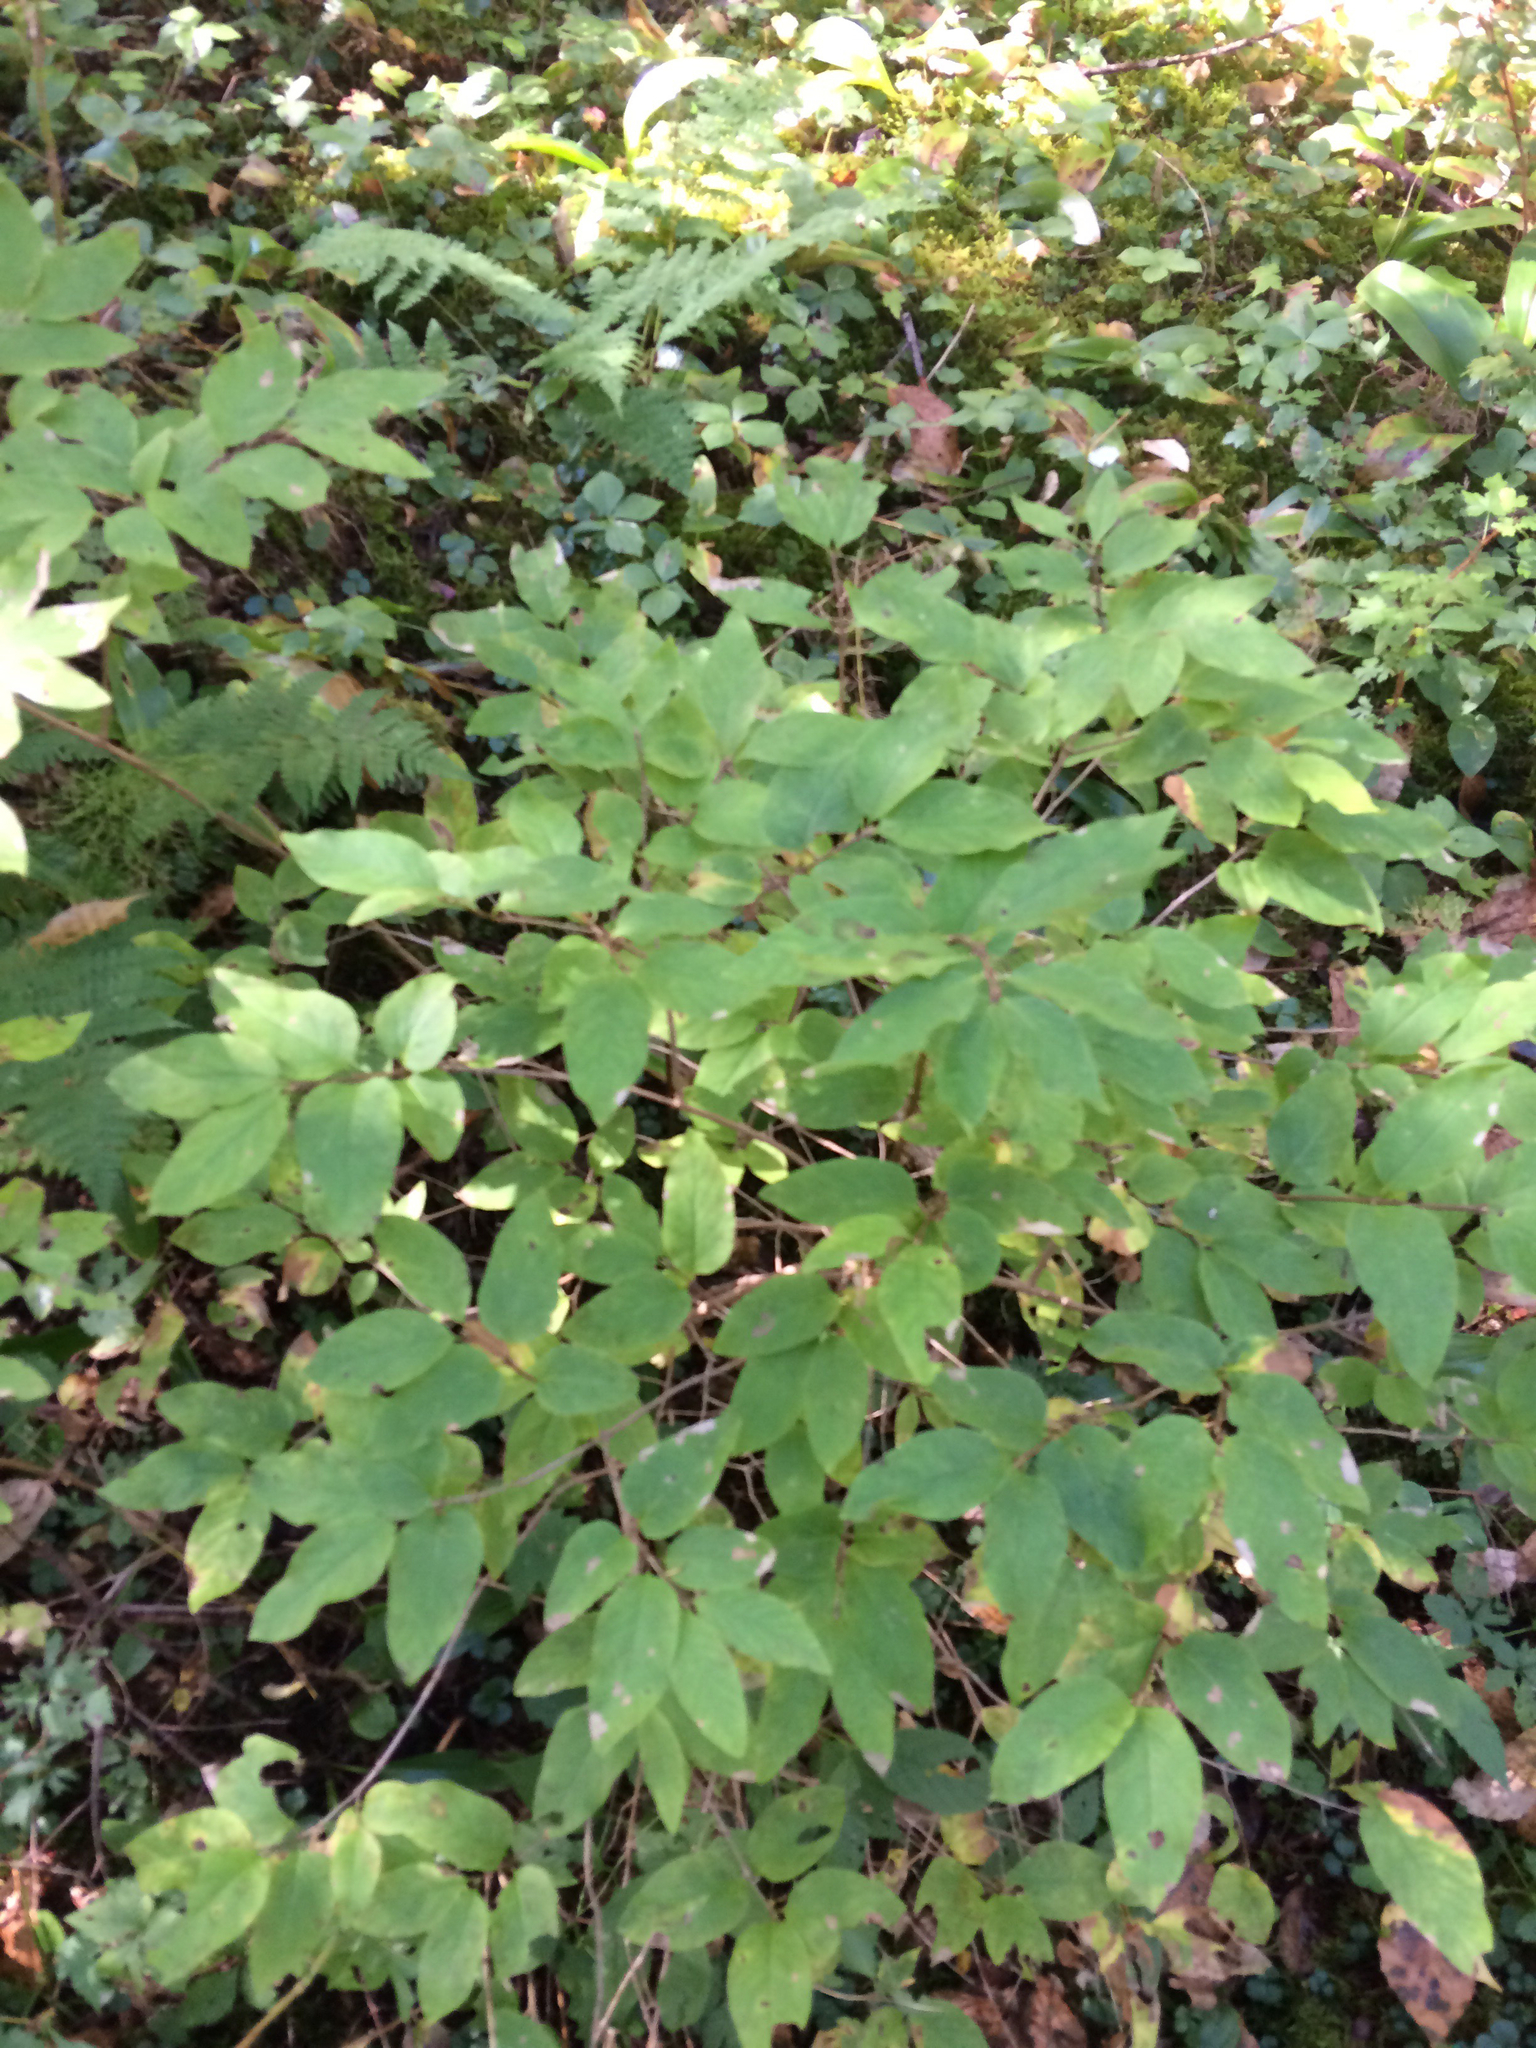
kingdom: Plantae
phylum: Tracheophyta
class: Magnoliopsida
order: Dipsacales
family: Caprifoliaceae
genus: Lonicera
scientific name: Lonicera canadensis
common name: American fly-honeysuckle
